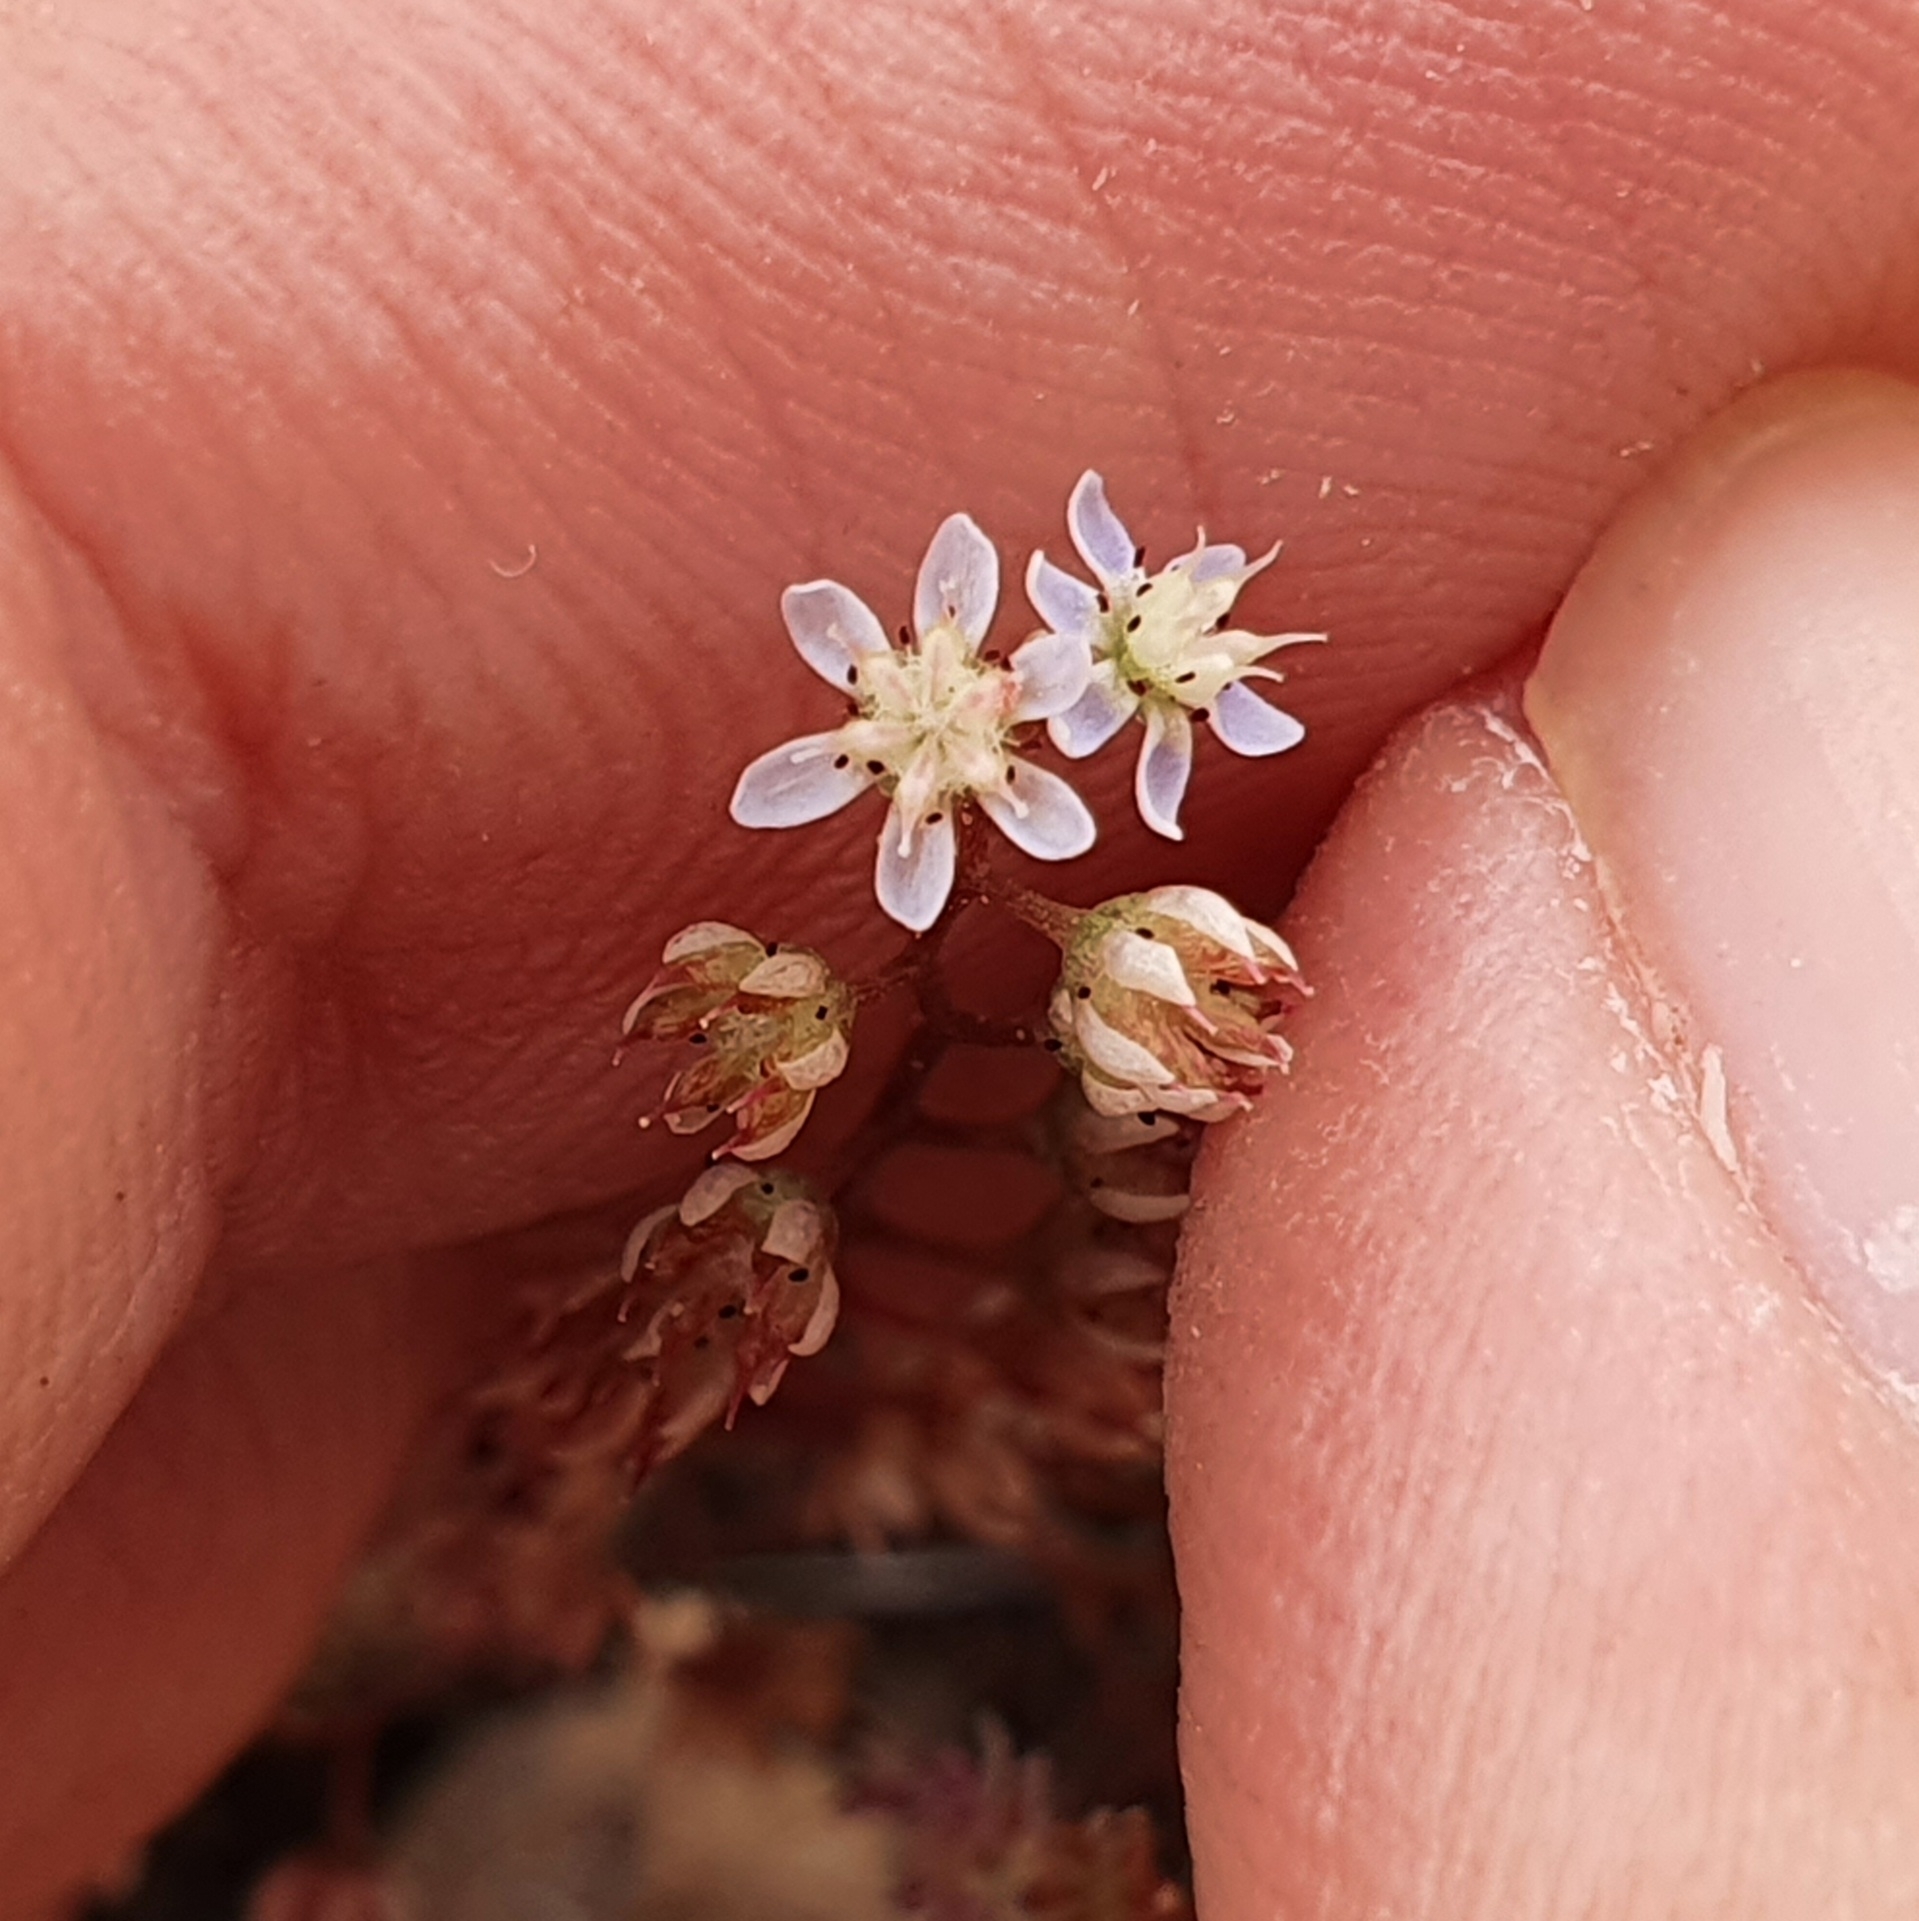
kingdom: Plantae
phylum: Tracheophyta
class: Magnoliopsida
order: Saxifragales
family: Crassulaceae
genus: Sedum
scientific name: Sedum caeruleum
